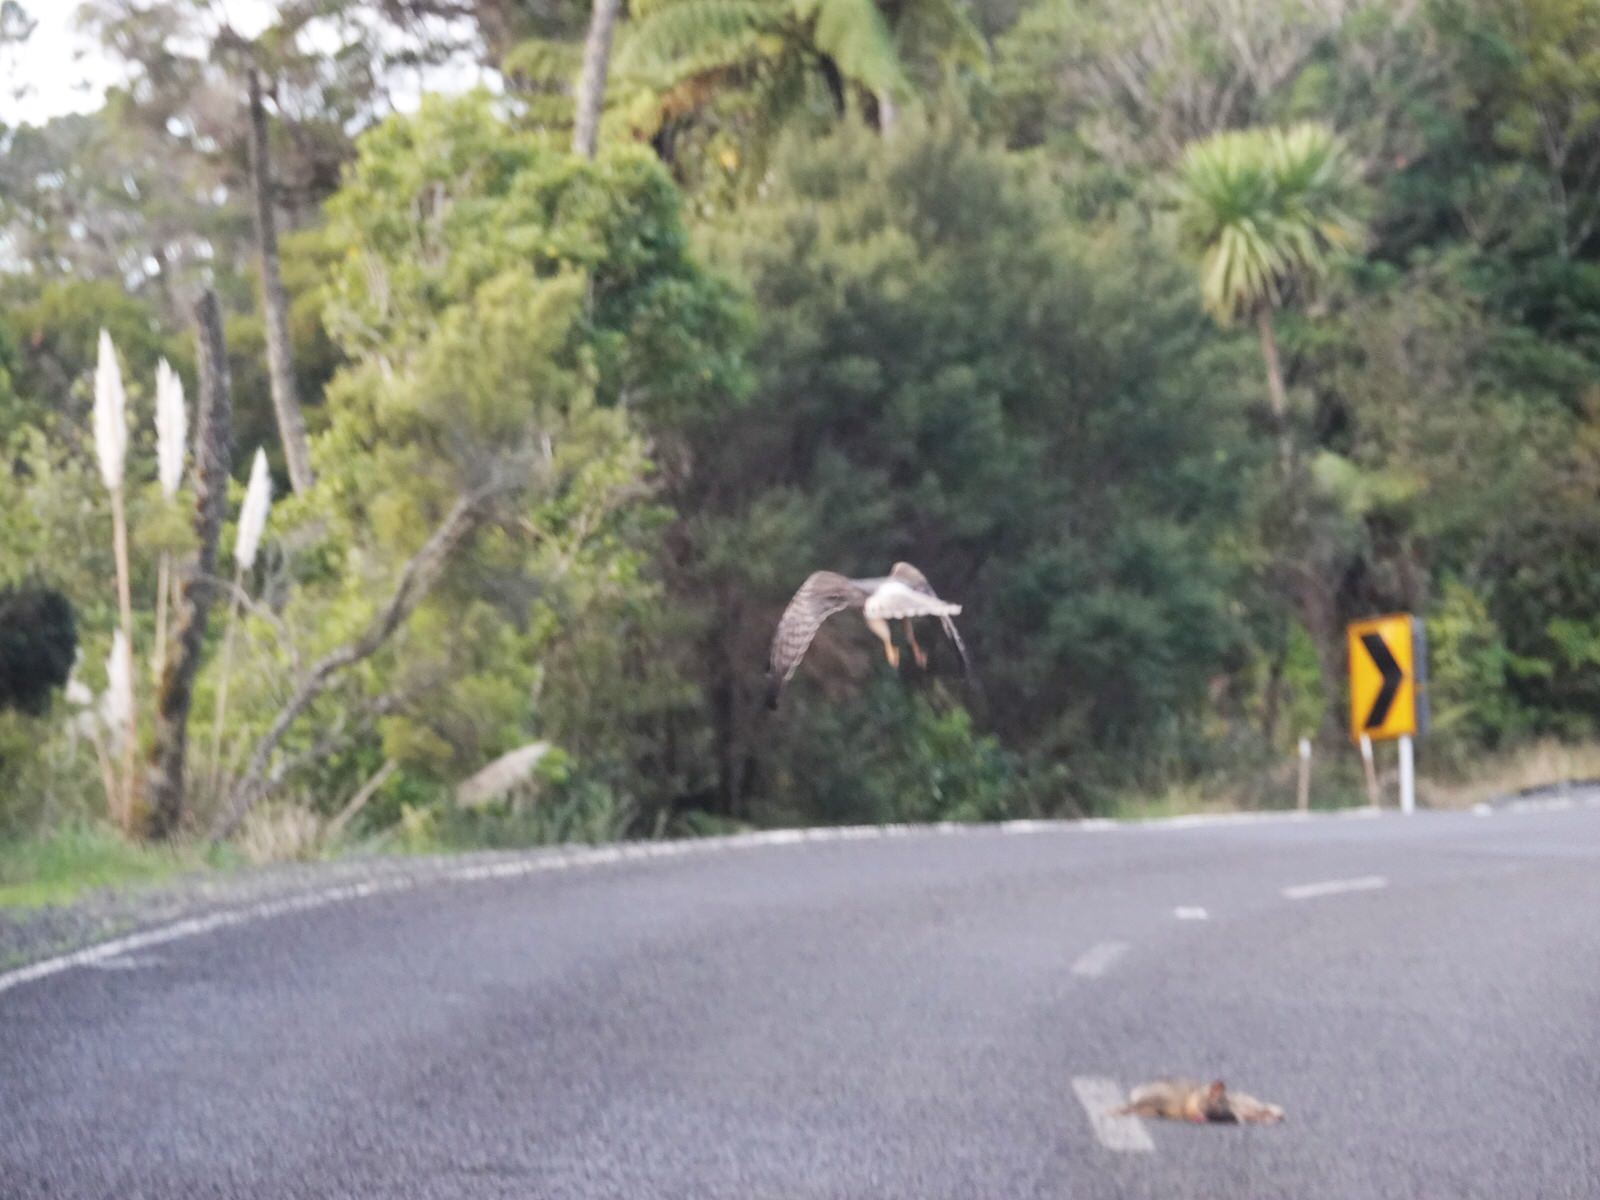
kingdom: Animalia
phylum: Chordata
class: Aves
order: Accipitriformes
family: Accipitridae
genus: Circus
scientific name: Circus approximans
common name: Swamp harrier
